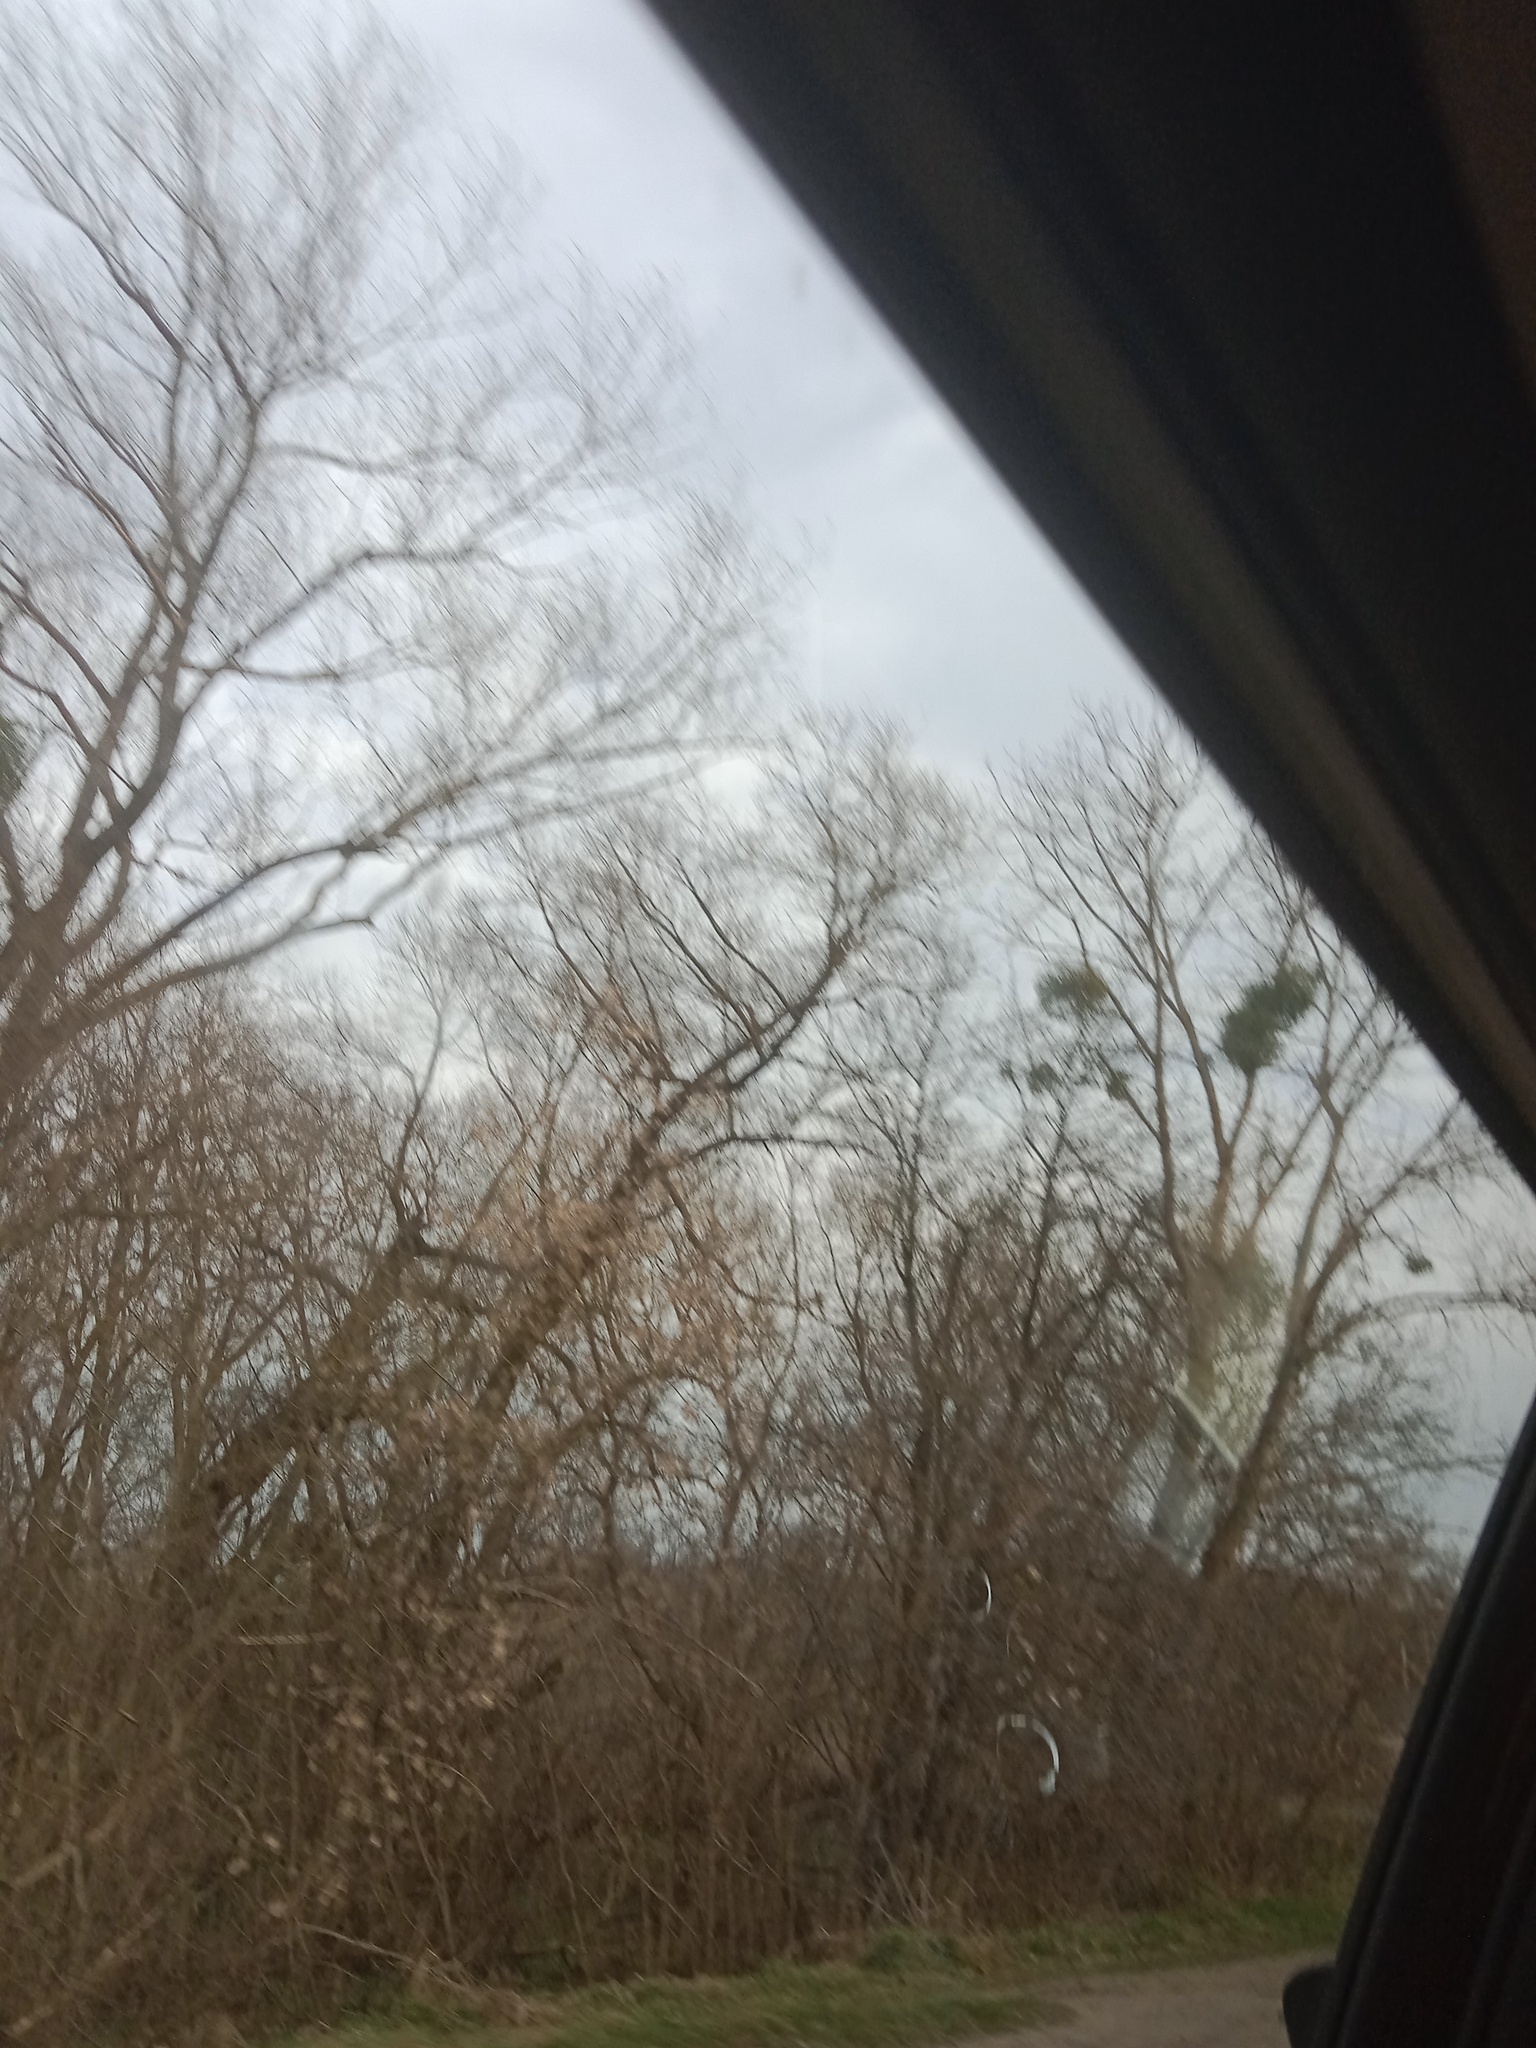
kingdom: Plantae
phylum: Tracheophyta
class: Magnoliopsida
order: Santalales
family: Viscaceae
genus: Viscum
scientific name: Viscum album
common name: Mistletoe
